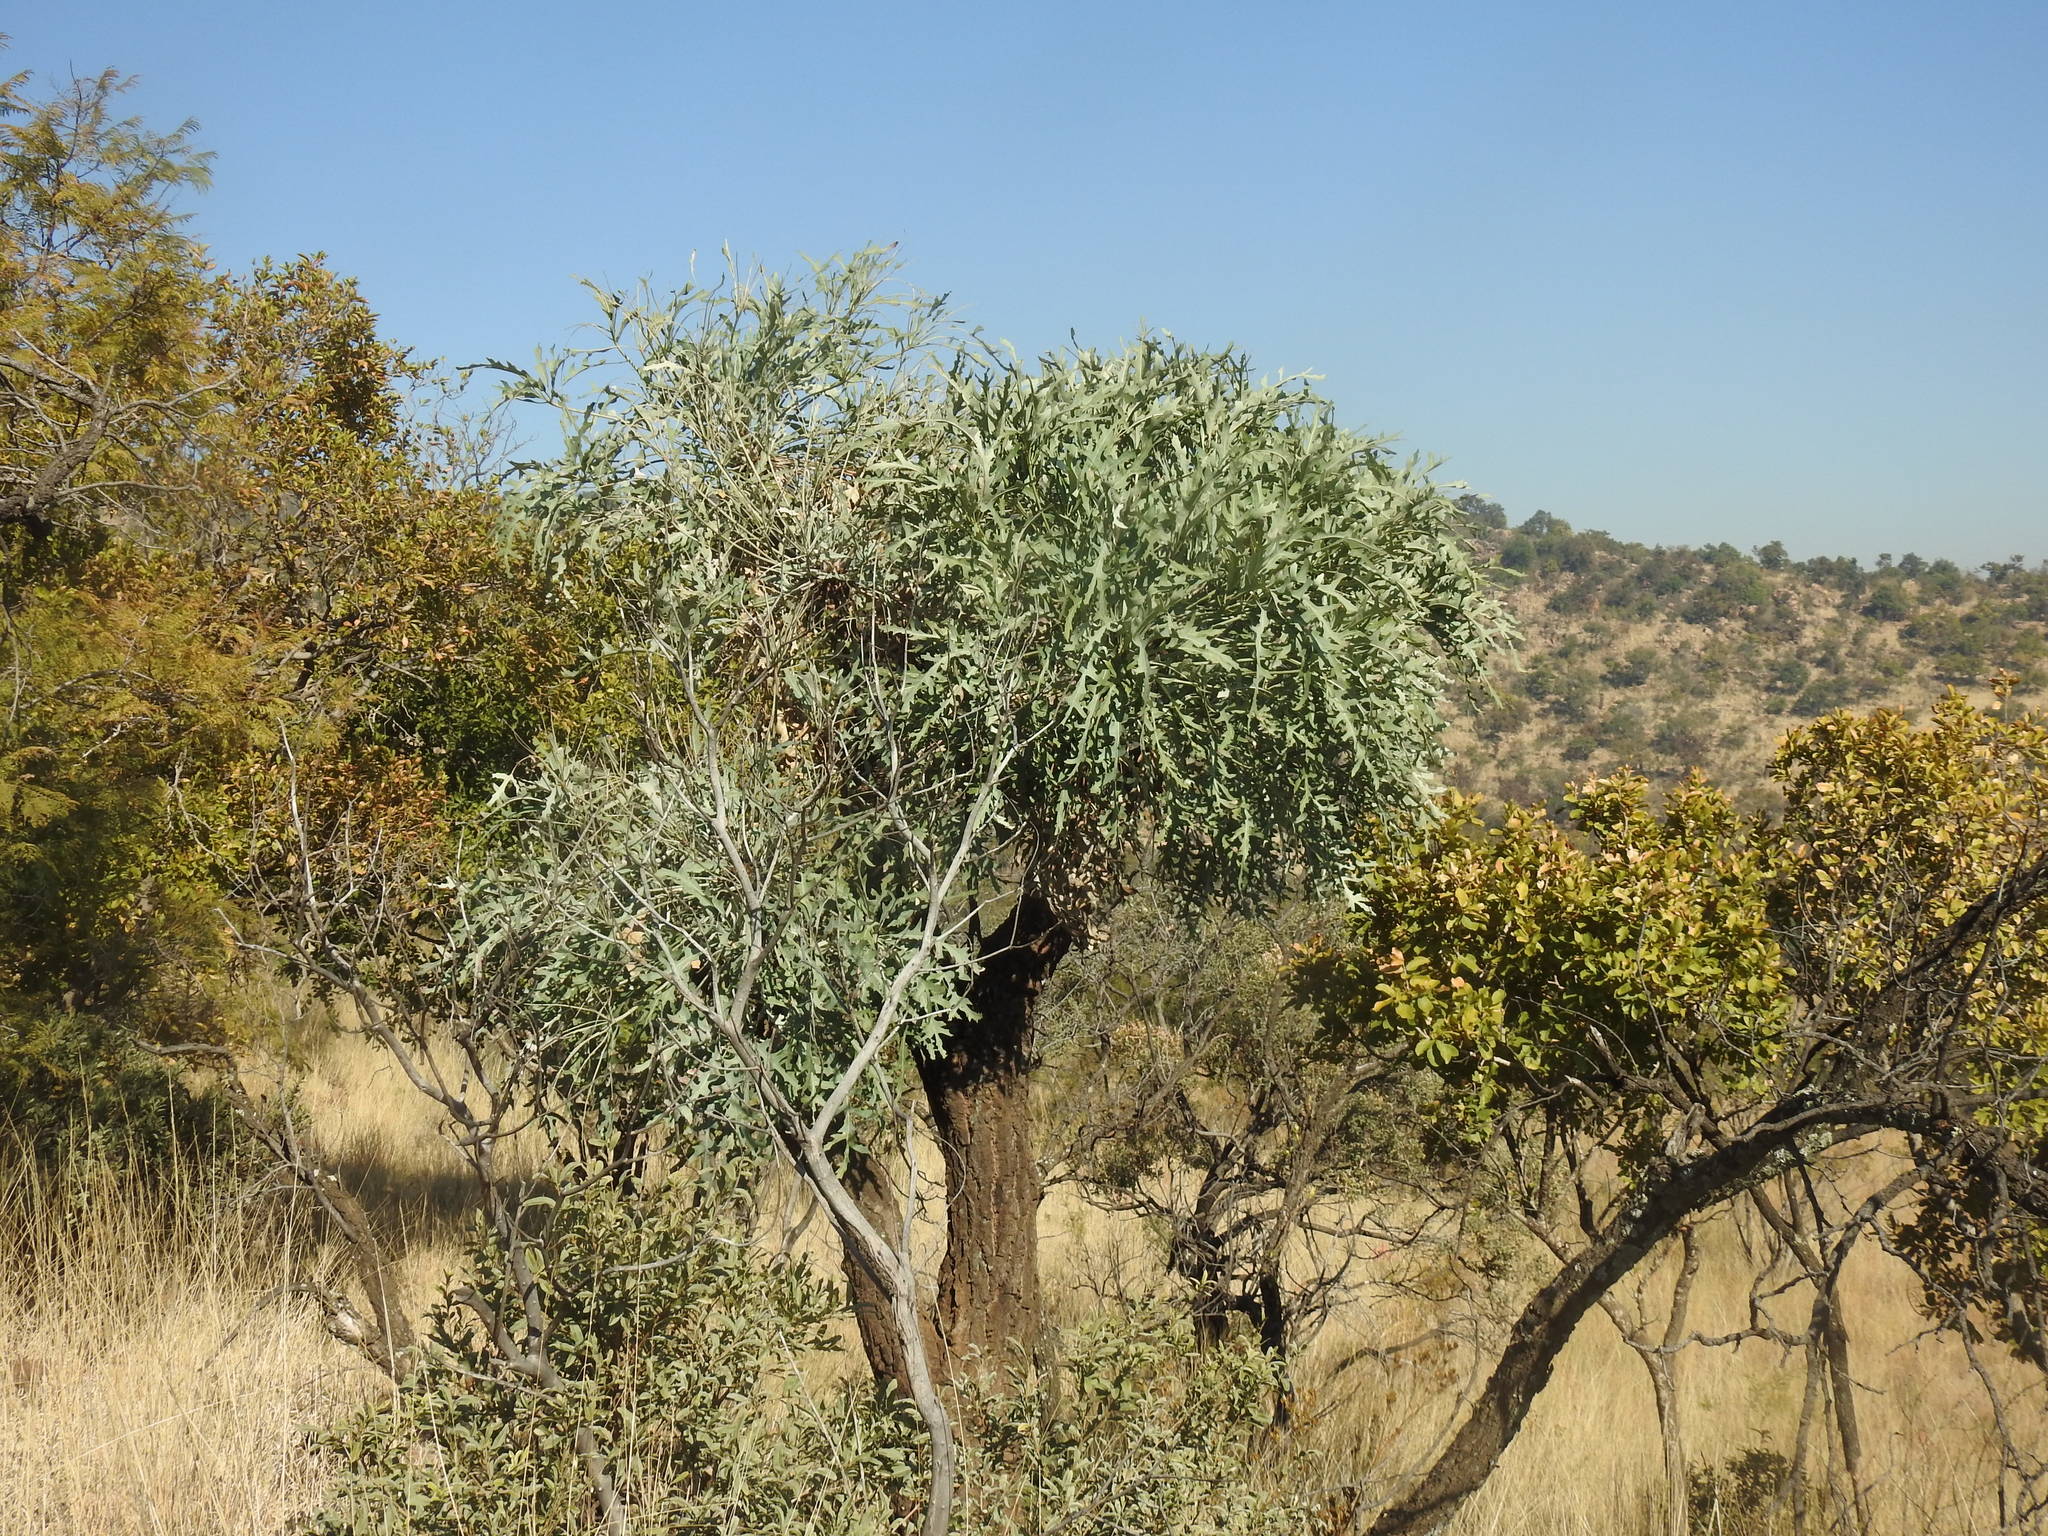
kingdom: Plantae
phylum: Tracheophyta
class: Magnoliopsida
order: Apiales
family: Araliaceae
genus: Cussonia
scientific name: Cussonia paniculata
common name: Cabbagetree
